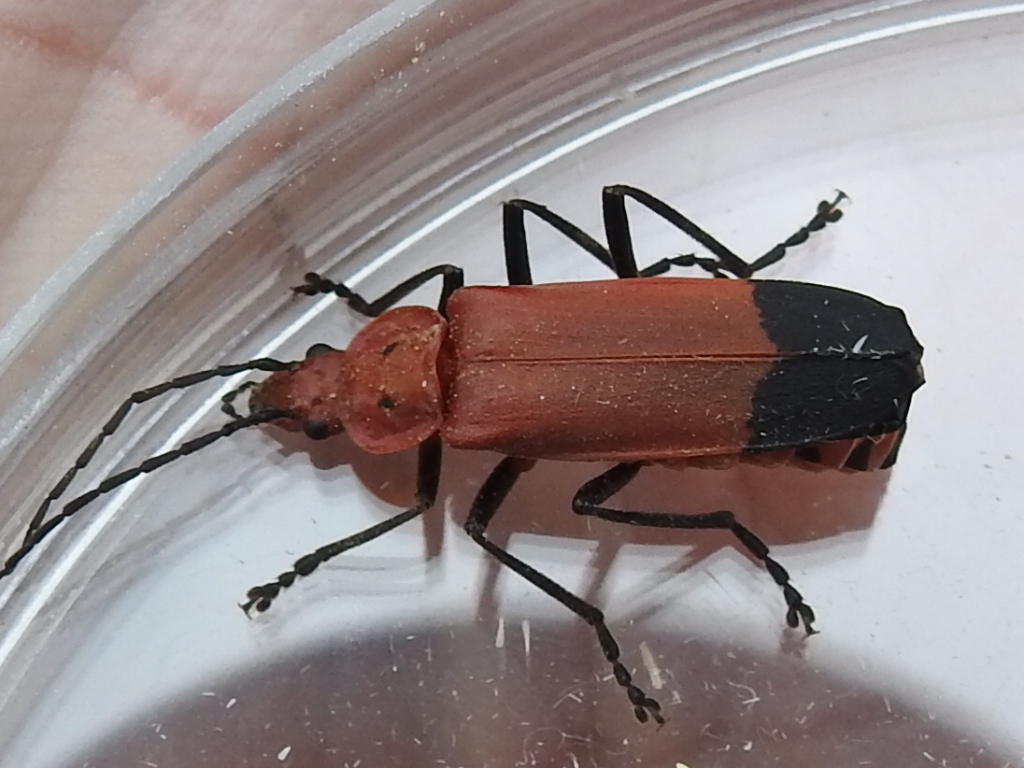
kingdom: Animalia
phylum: Arthropoda
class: Insecta
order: Coleoptera
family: Cantharidae
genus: Chauliognathus
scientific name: Chauliognathus lecontei
